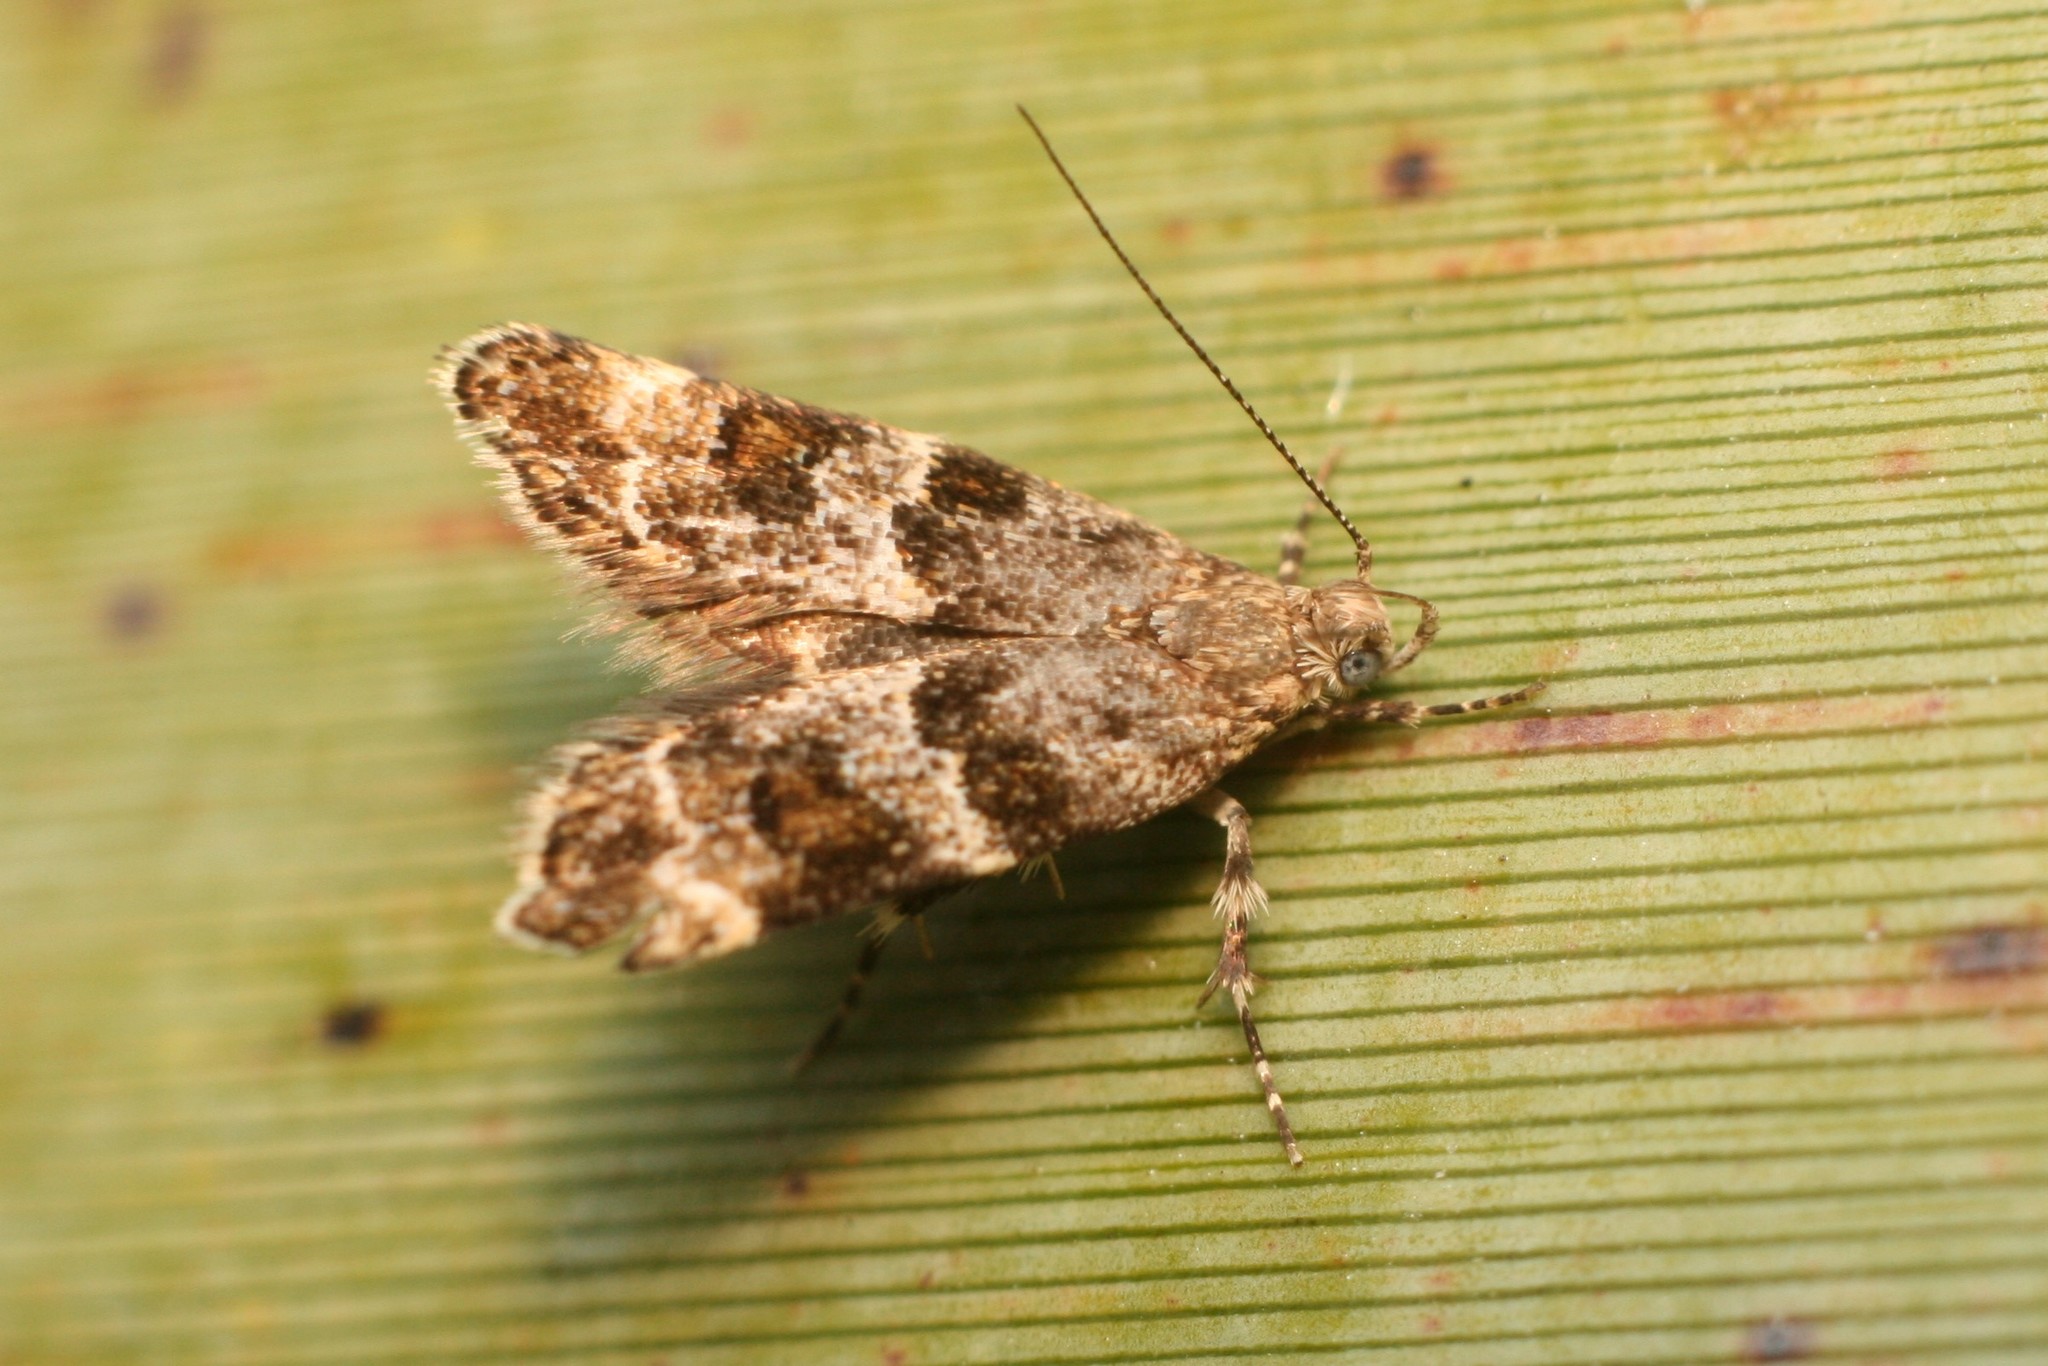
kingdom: Animalia
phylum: Arthropoda
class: Insecta
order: Lepidoptera
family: Oecophoridae
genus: Gymnobathra
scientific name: Gymnobathra omphalota
